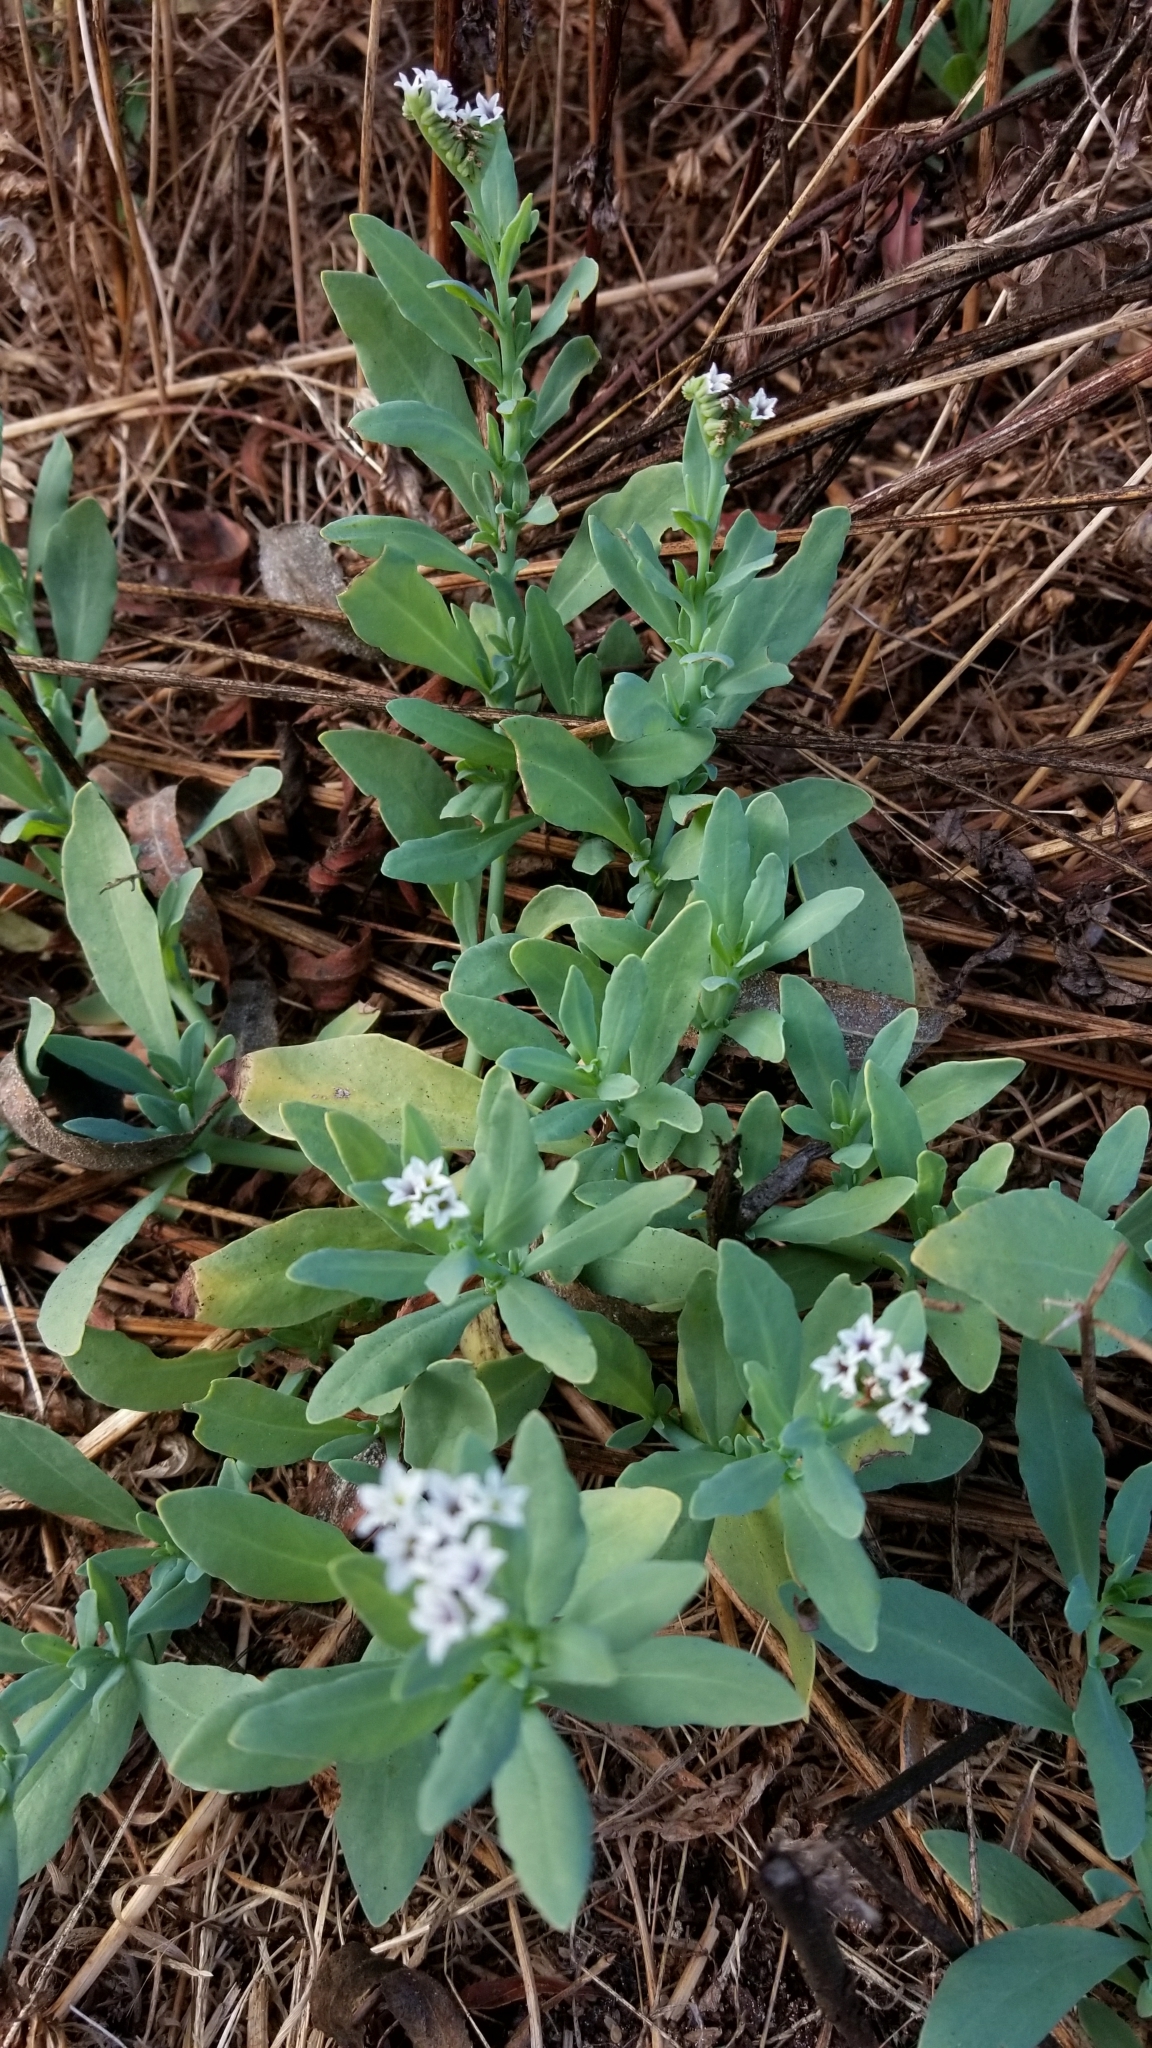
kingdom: Plantae
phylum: Tracheophyta
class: Magnoliopsida
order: Boraginales
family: Heliotropiaceae
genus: Heliotropium
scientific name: Heliotropium curassavicum
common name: Seaside heliotrope
